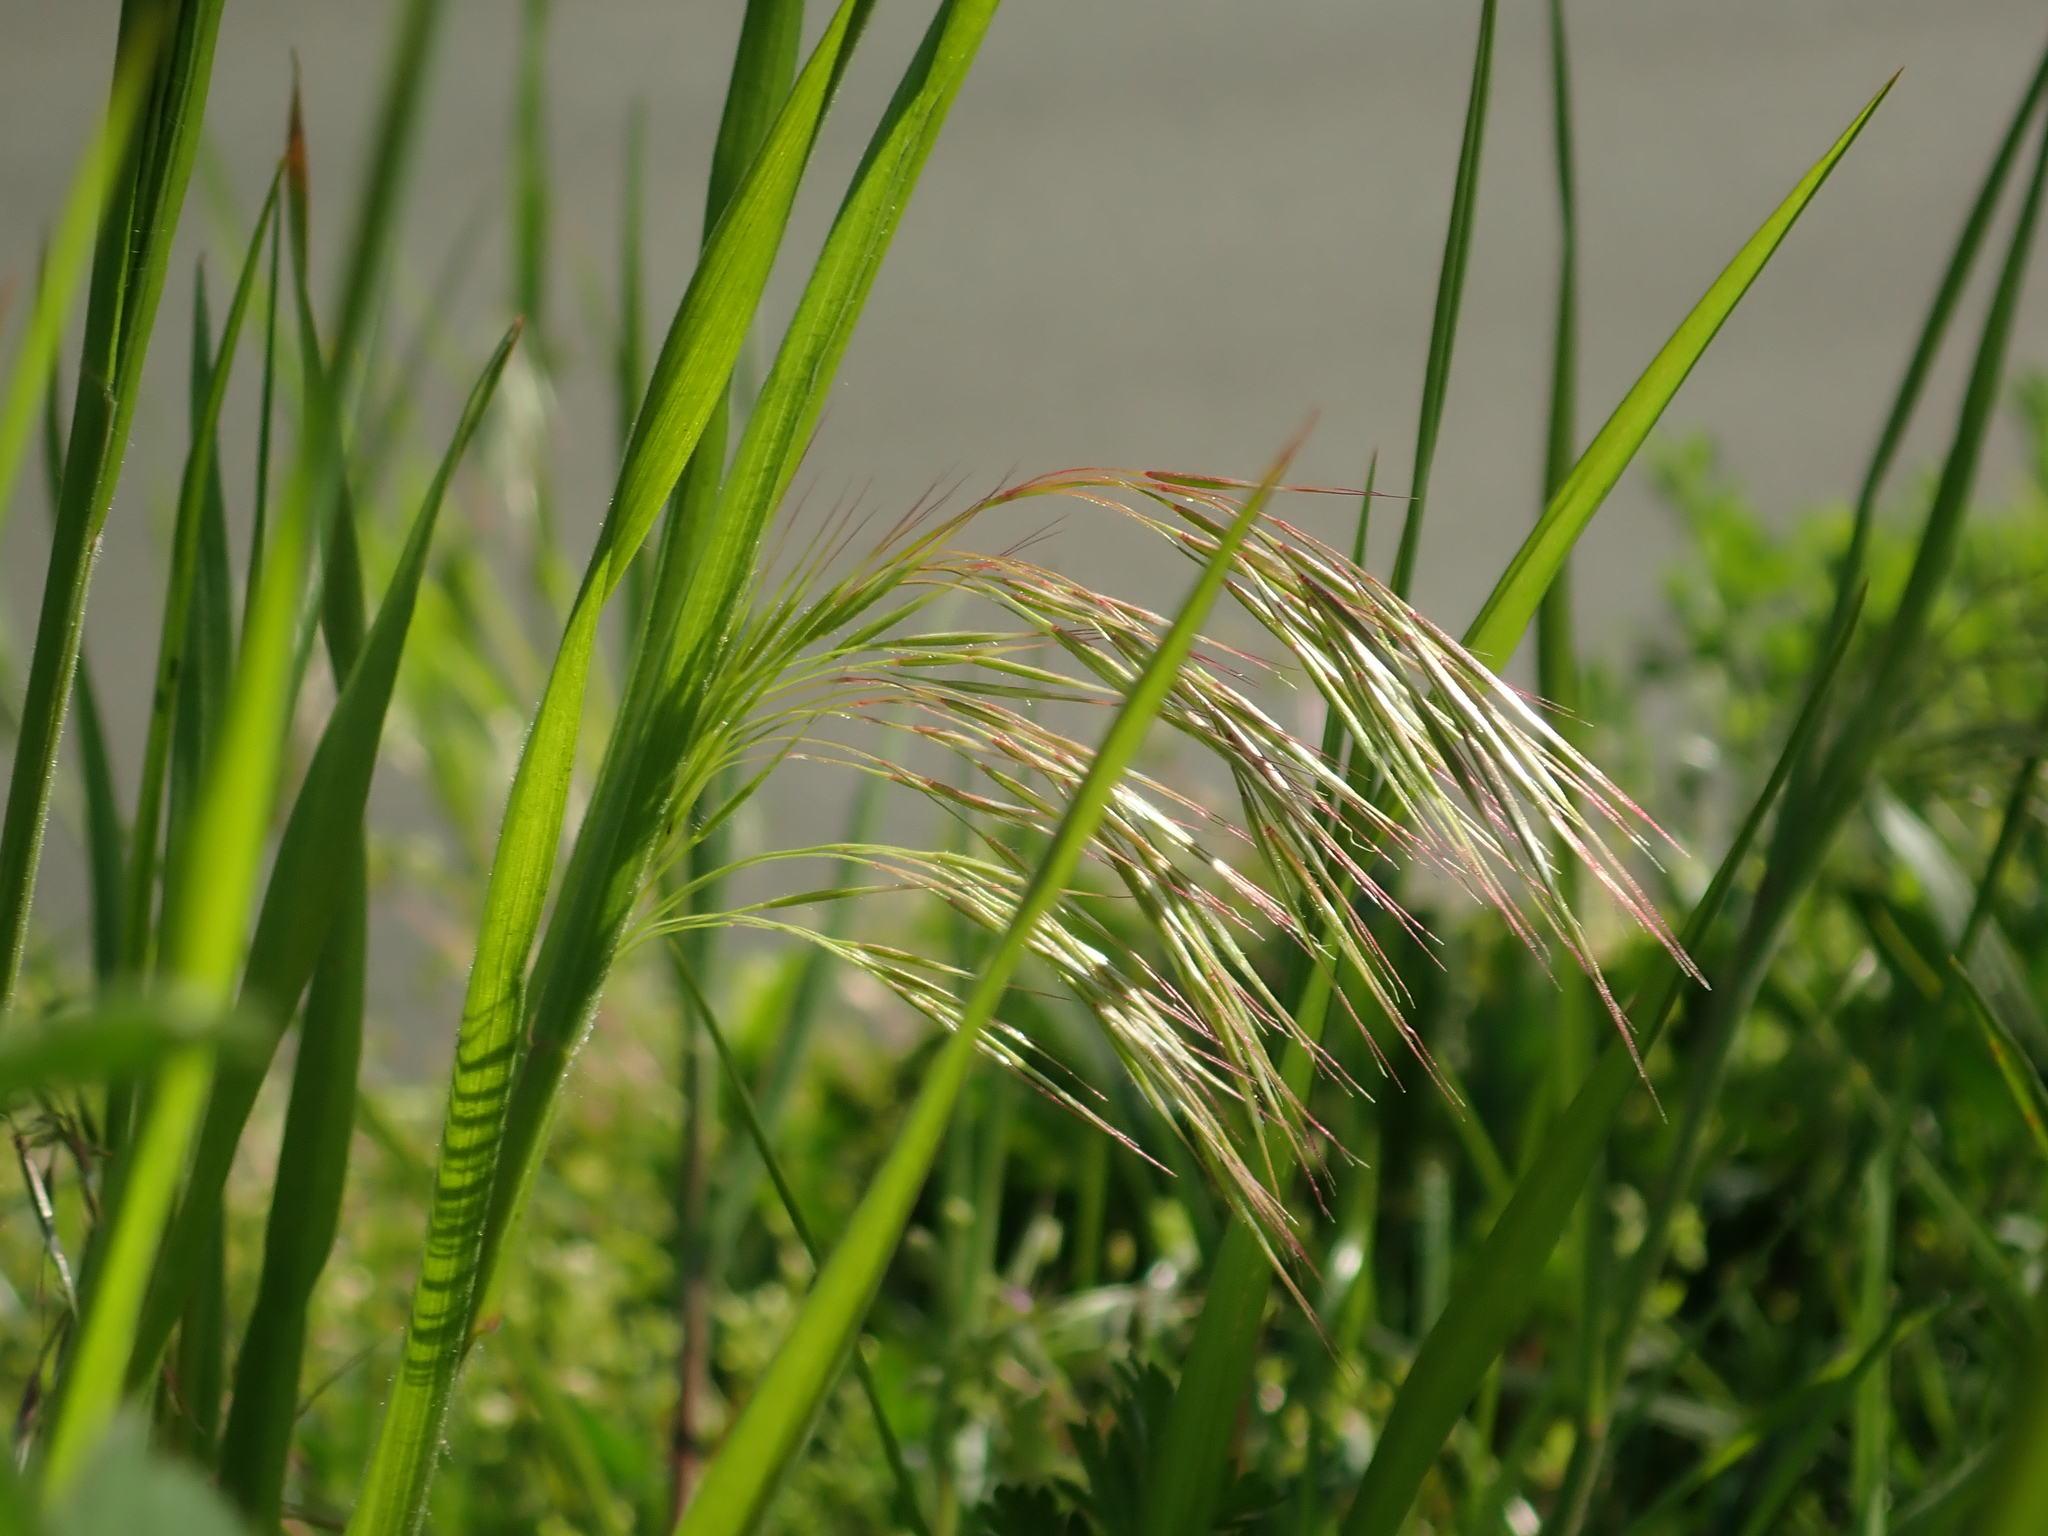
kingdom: Plantae
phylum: Tracheophyta
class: Liliopsida
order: Poales
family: Poaceae
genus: Bromus
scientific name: Bromus sterilis
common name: Poverty brome
